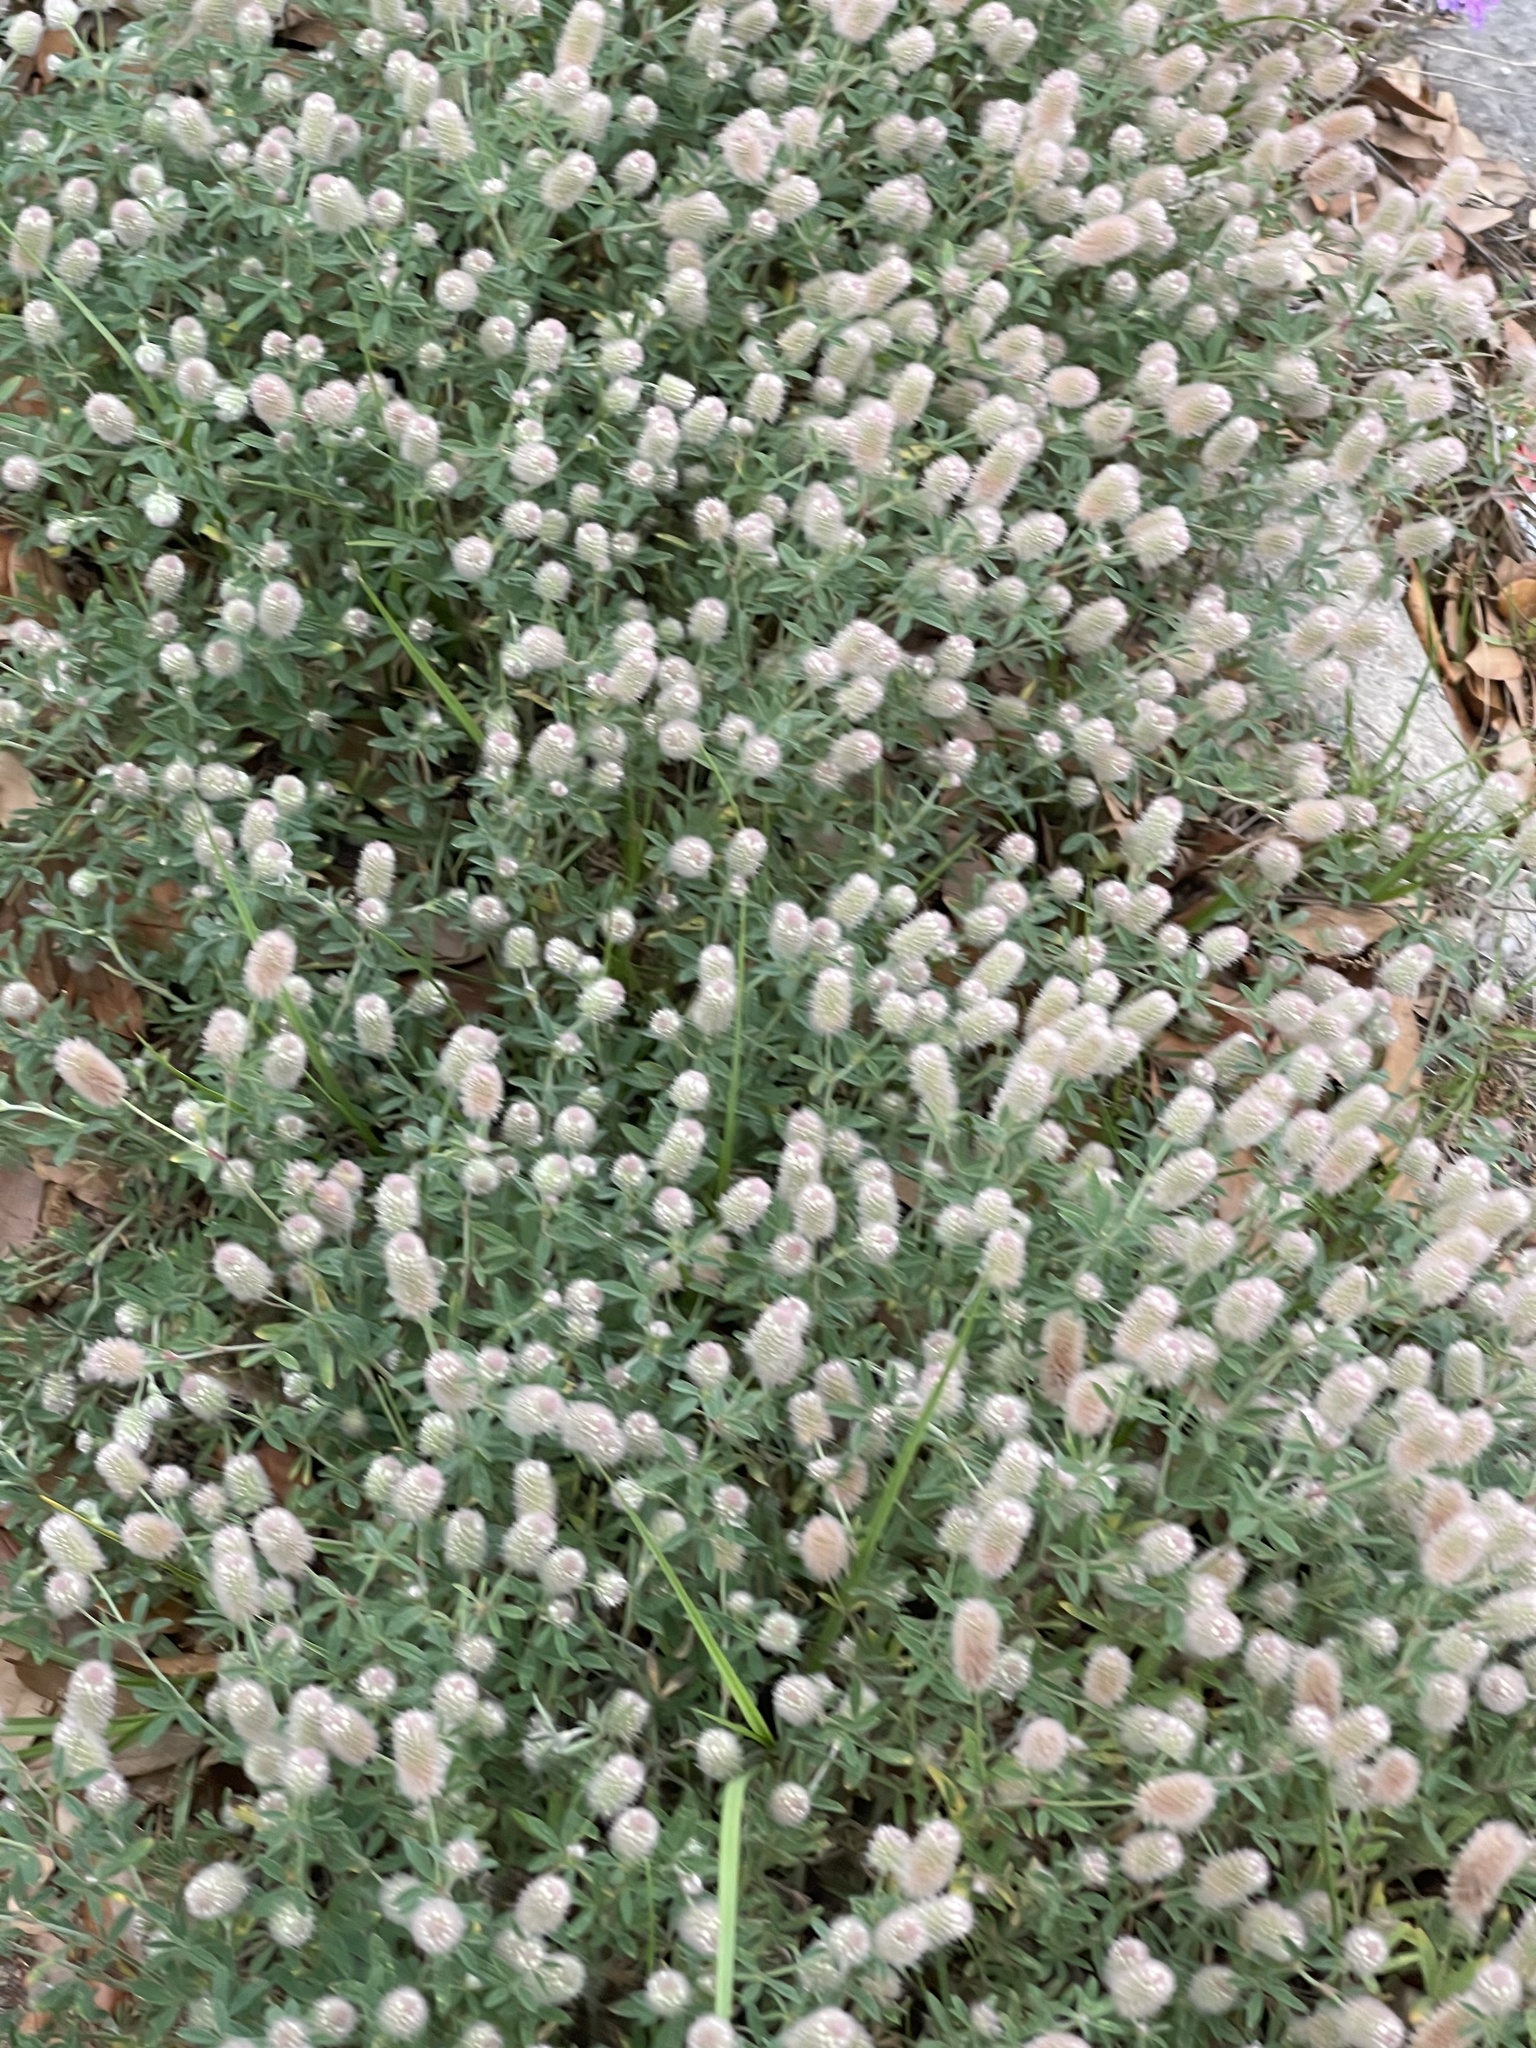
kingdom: Plantae
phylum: Tracheophyta
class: Magnoliopsida
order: Fabales
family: Fabaceae
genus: Trifolium
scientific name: Trifolium arvense
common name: Hare's-foot clover
